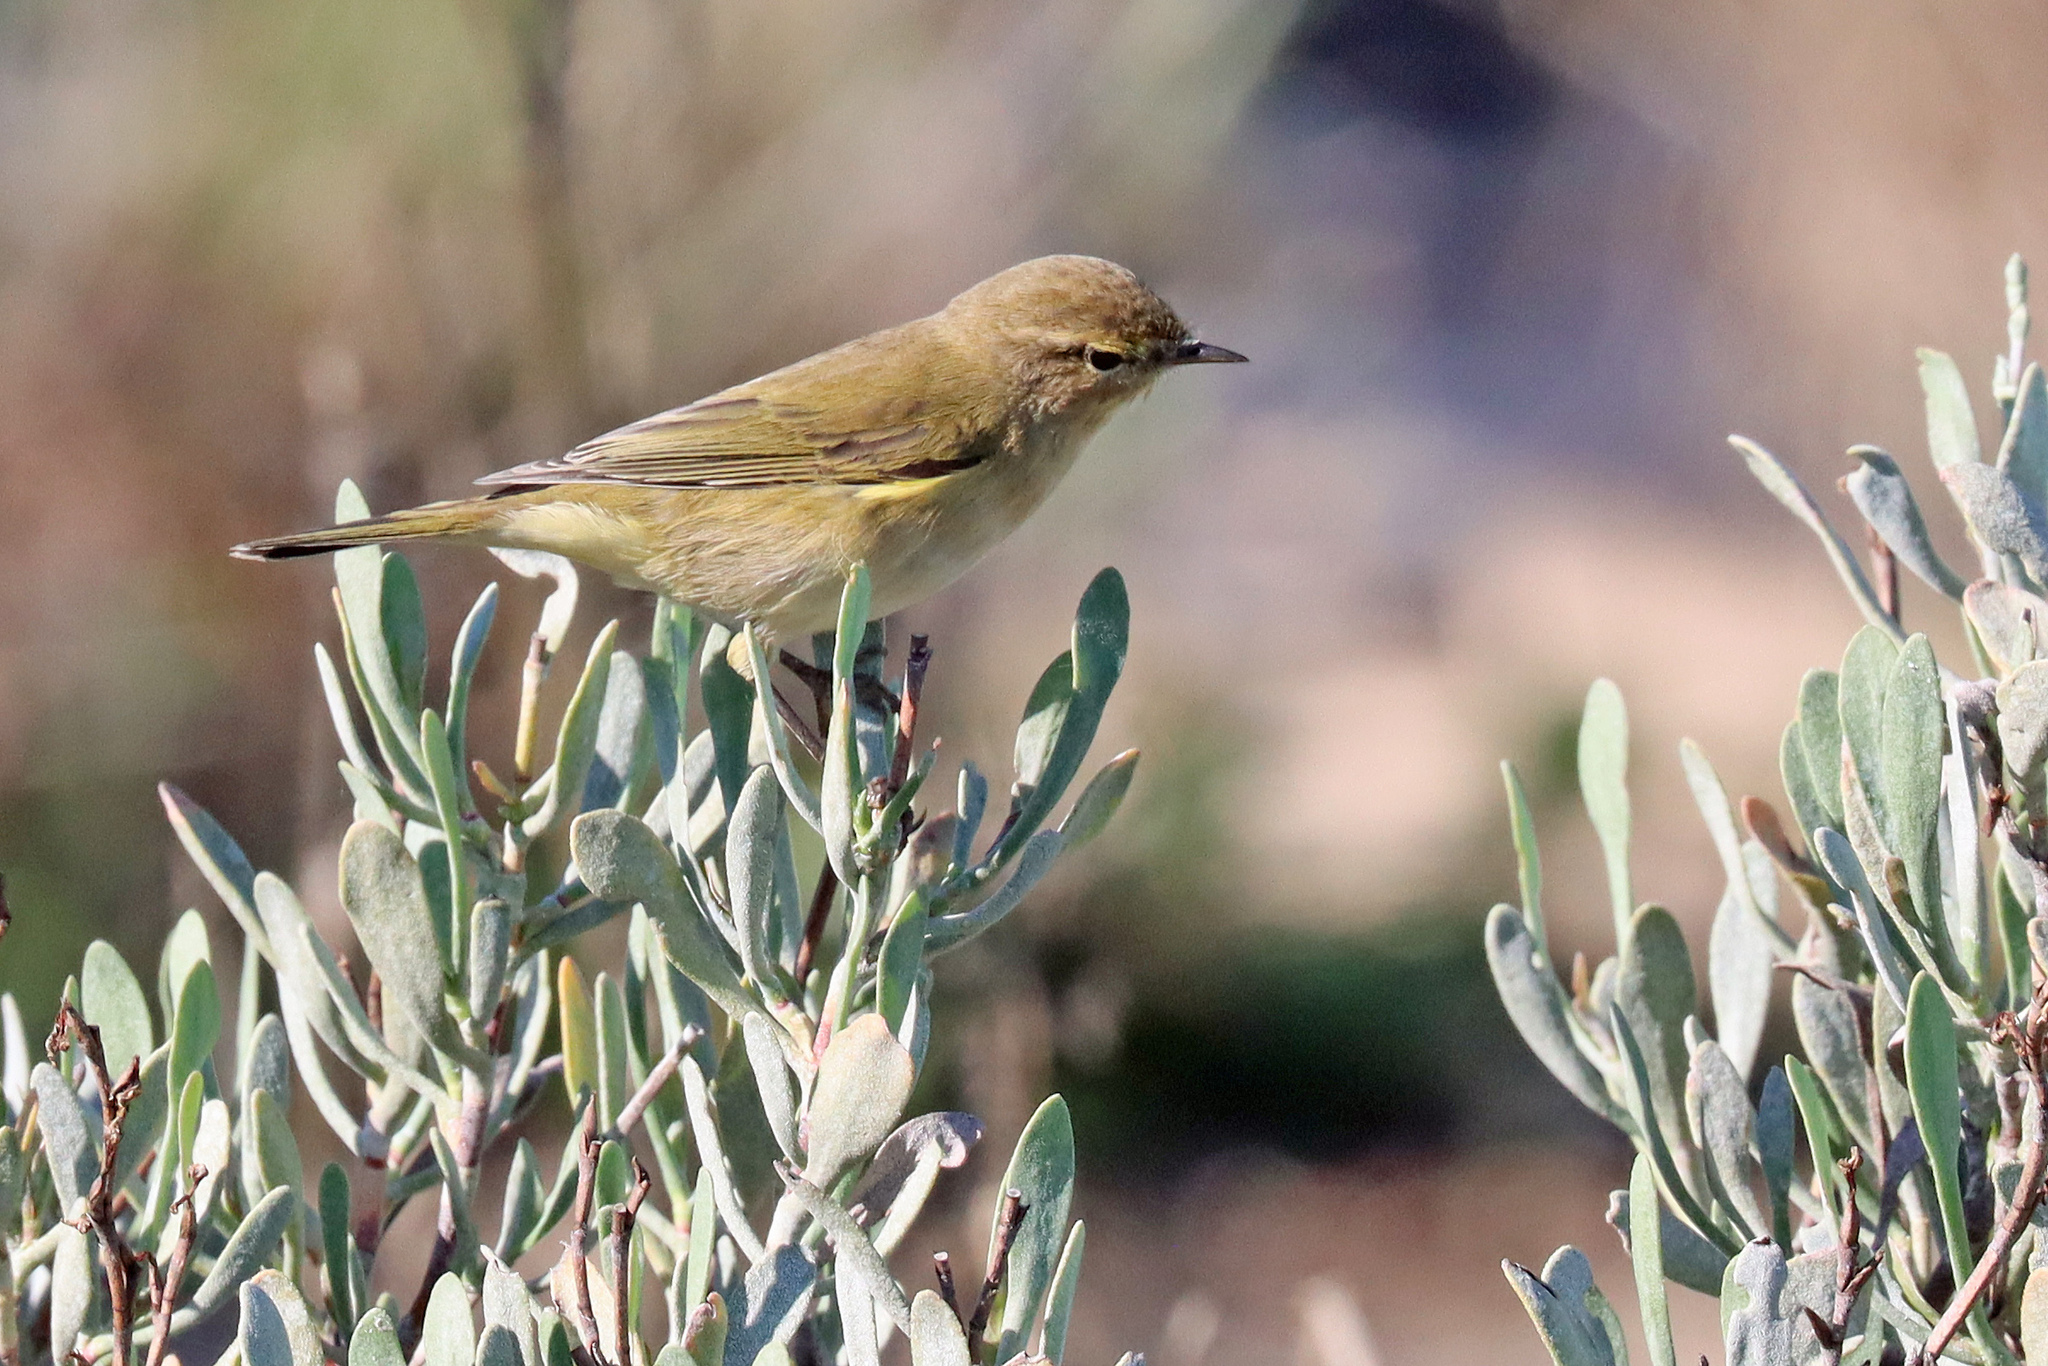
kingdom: Animalia
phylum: Chordata
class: Aves
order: Passeriformes
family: Phylloscopidae
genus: Phylloscopus
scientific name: Phylloscopus collybita
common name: Common chiffchaff
